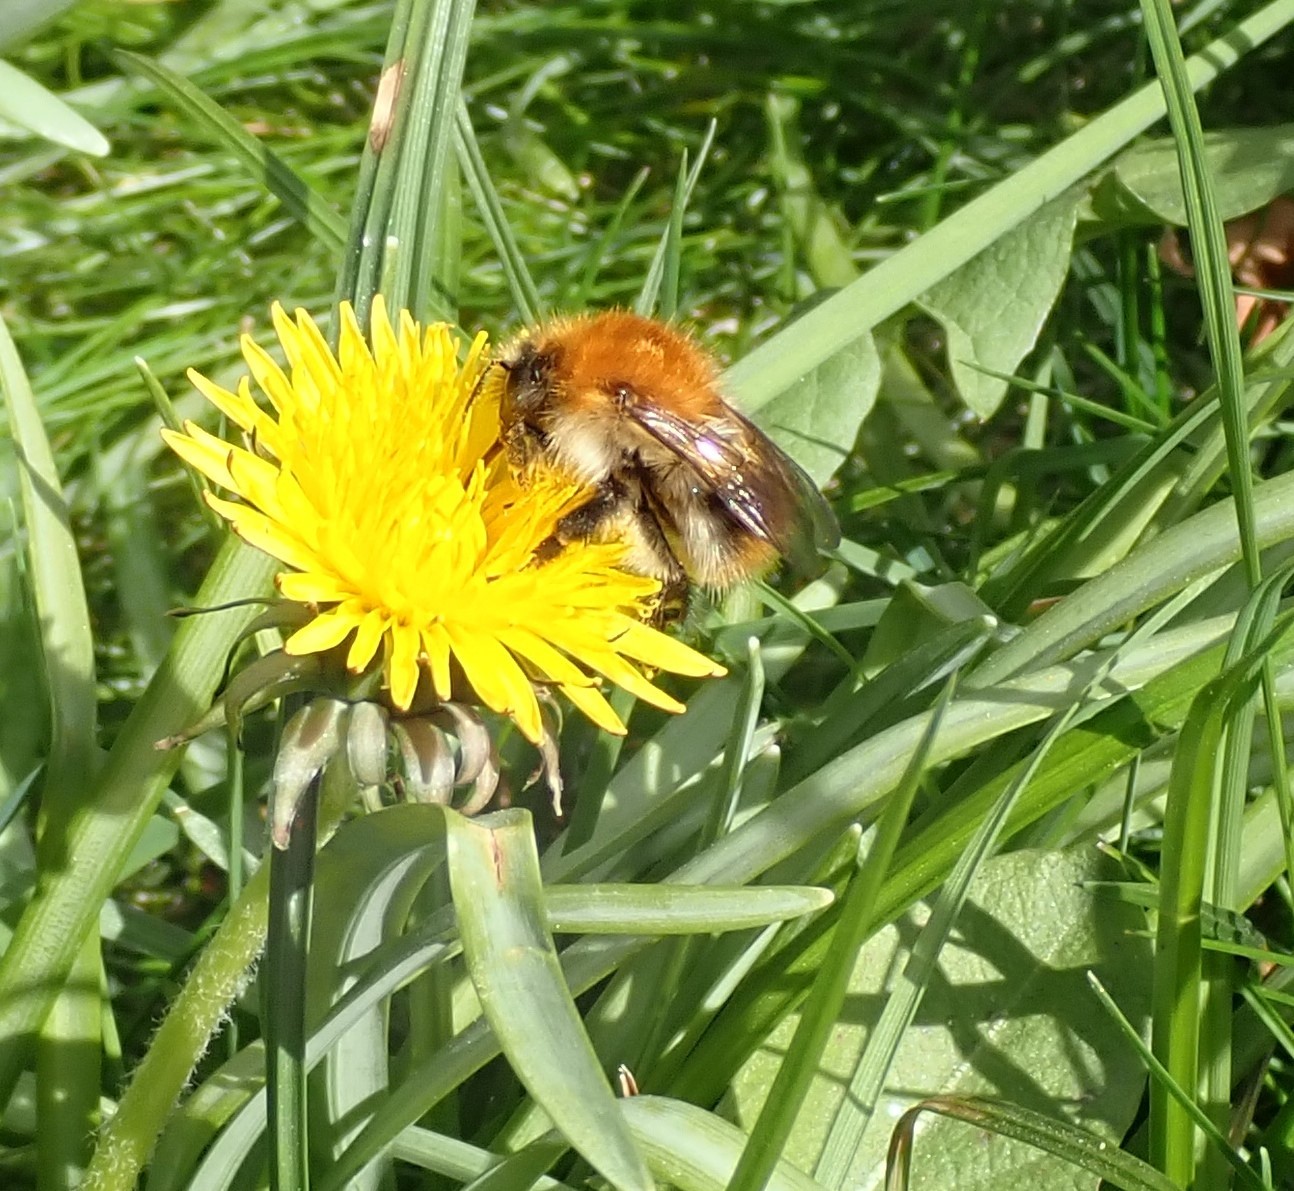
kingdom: Animalia
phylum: Arthropoda
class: Insecta
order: Hymenoptera
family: Apidae
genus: Bombus
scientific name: Bombus pascuorum
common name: Common carder bee
